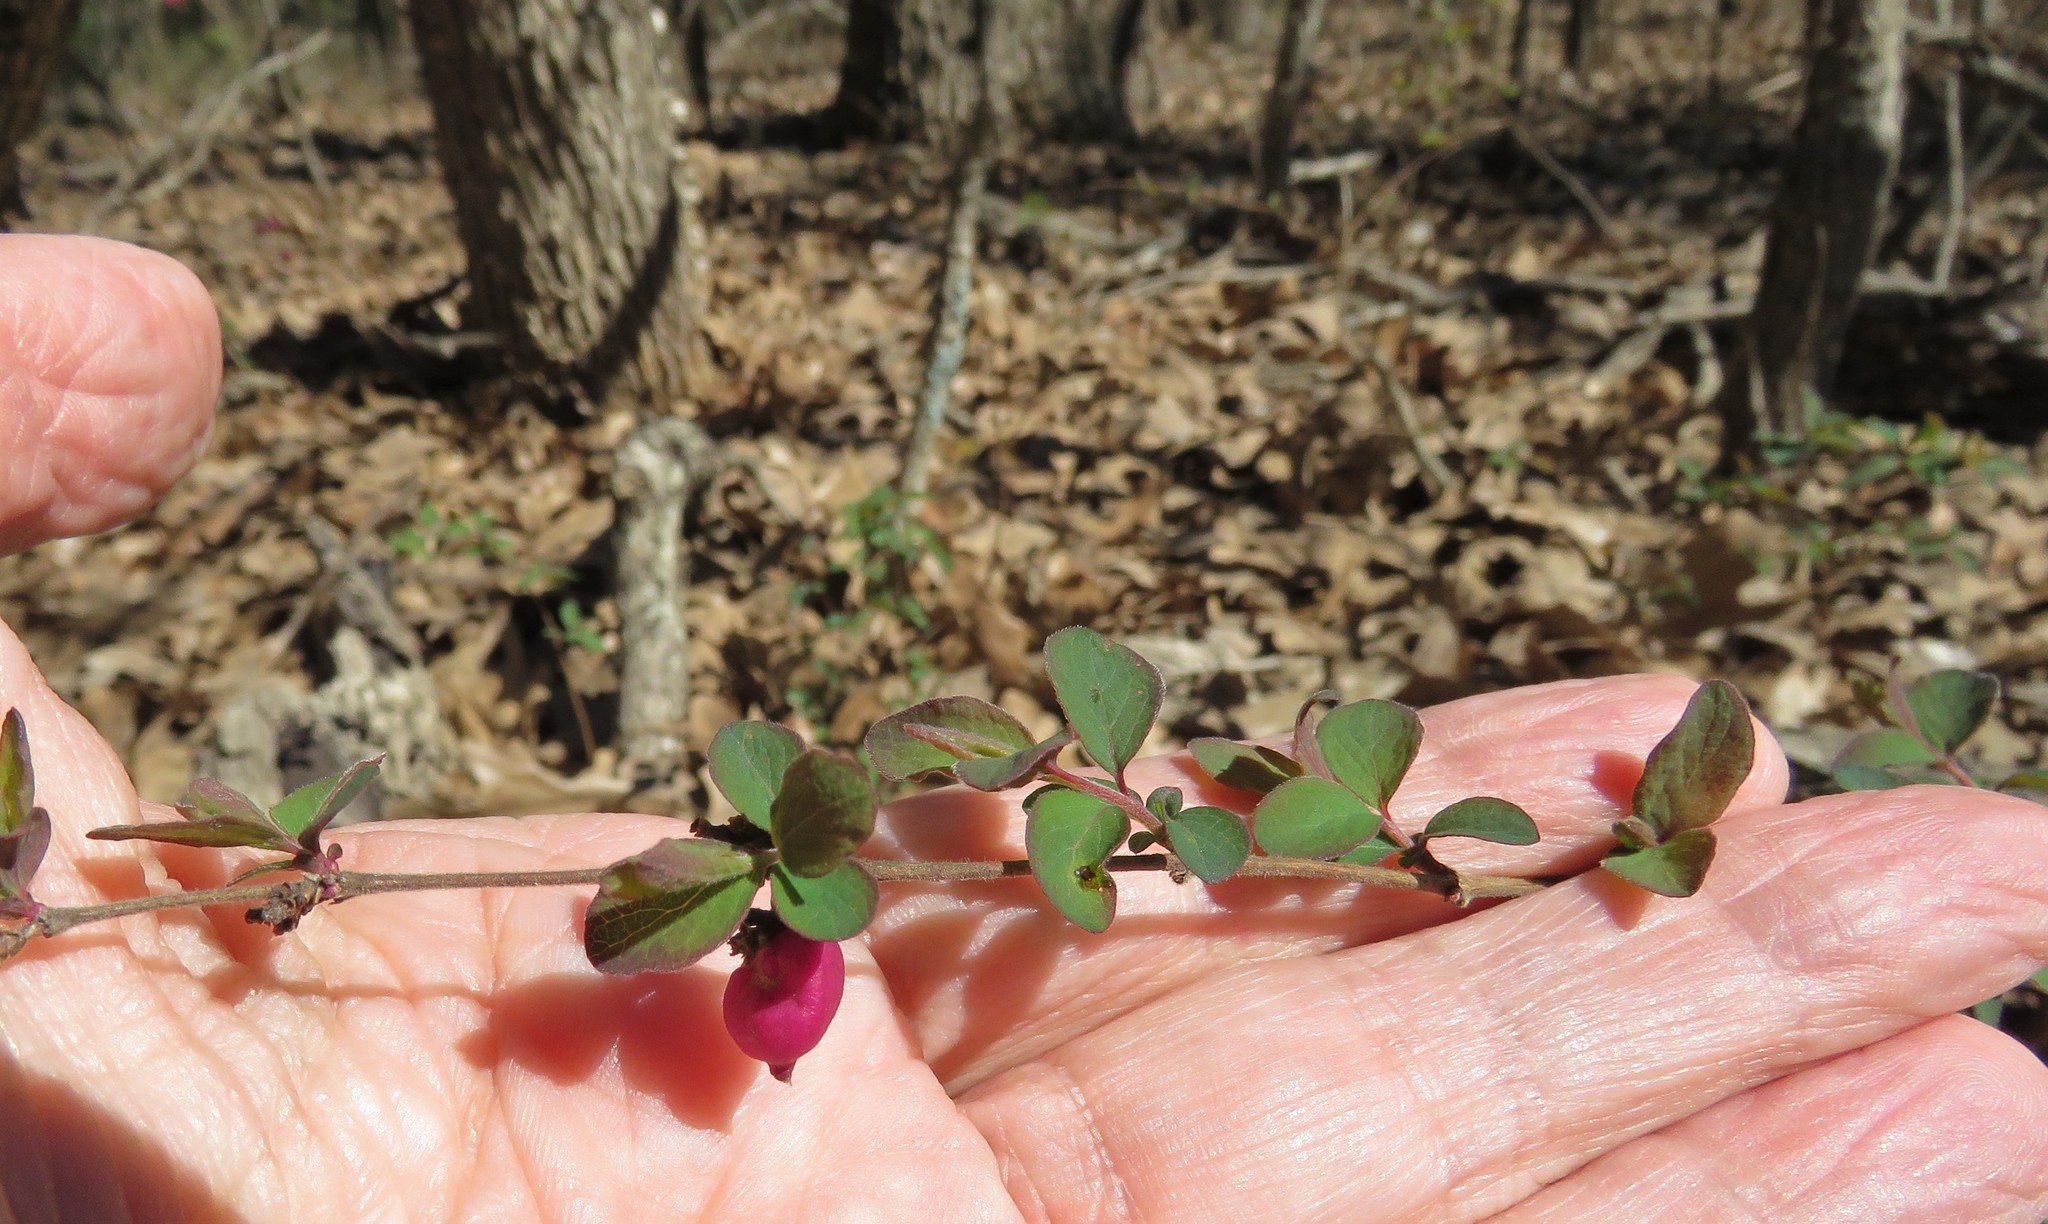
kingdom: Plantae
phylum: Tracheophyta
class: Magnoliopsida
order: Dipsacales
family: Caprifoliaceae
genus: Symphoricarpos
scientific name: Symphoricarpos orbiculatus
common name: Coralberry
